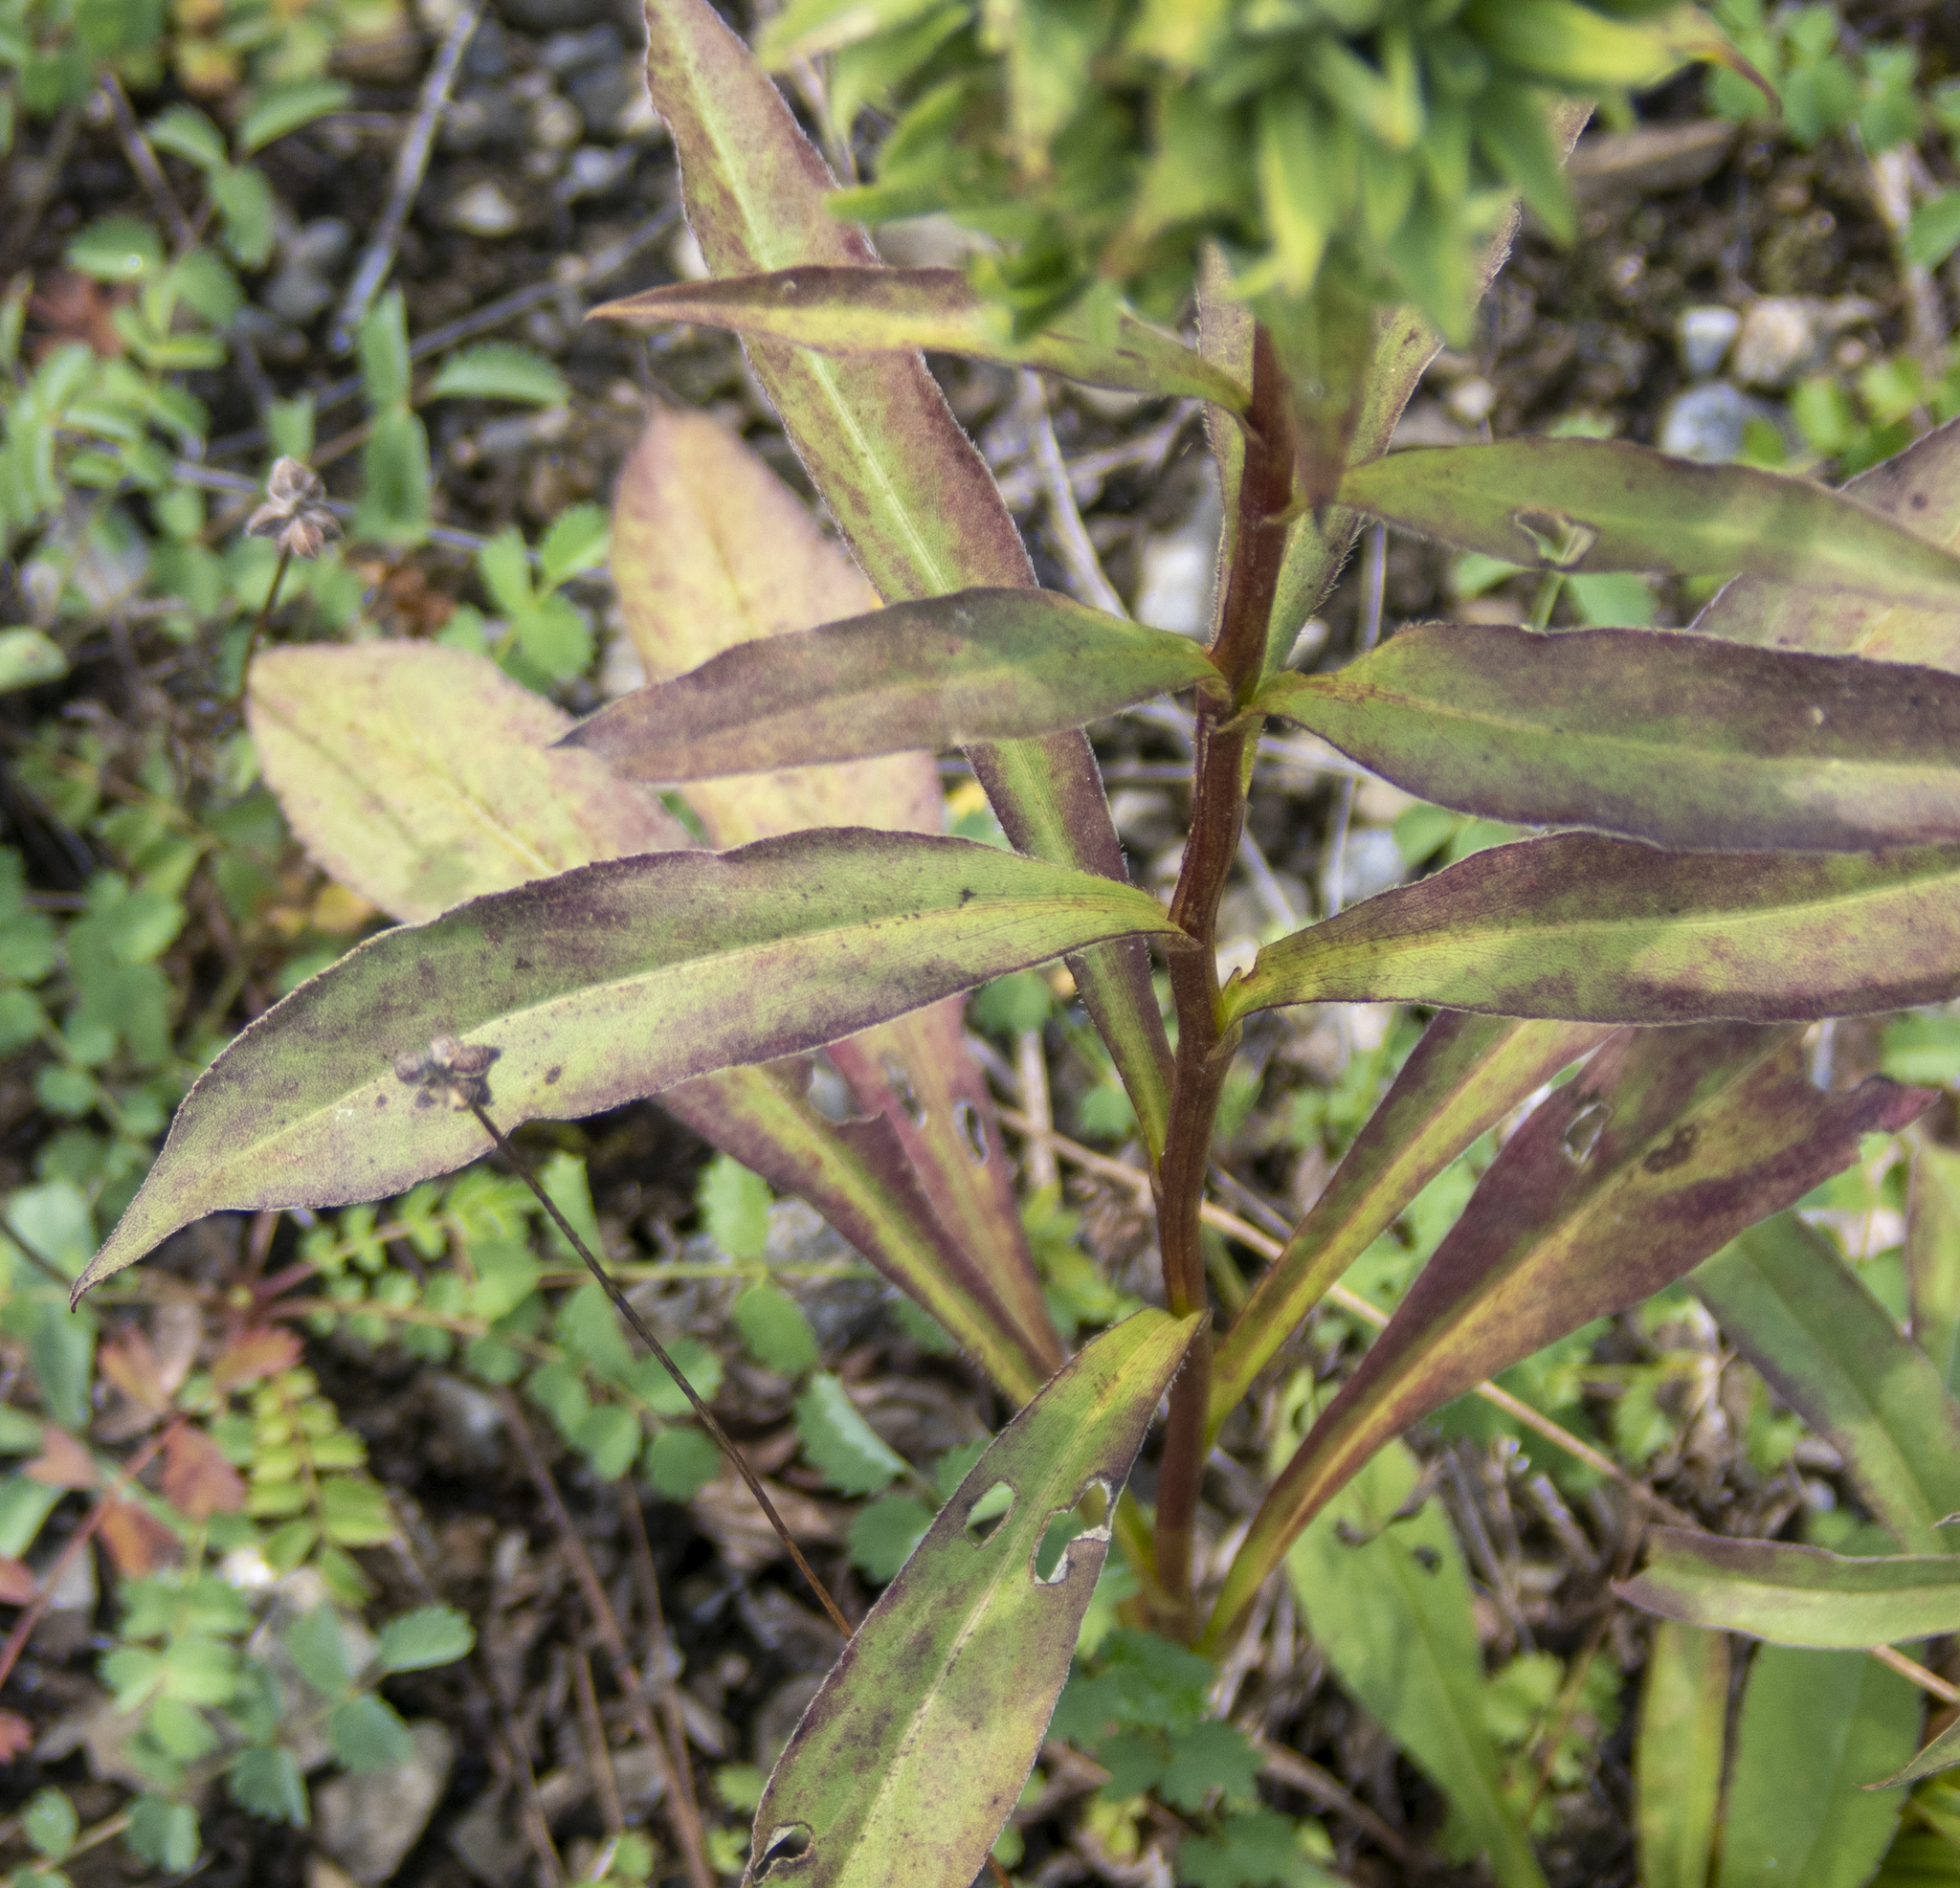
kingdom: Animalia
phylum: Arthropoda
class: Insecta
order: Diptera
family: Cecidomyiidae
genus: Asphondylia
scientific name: Asphondylia monacha
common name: Nun midge
